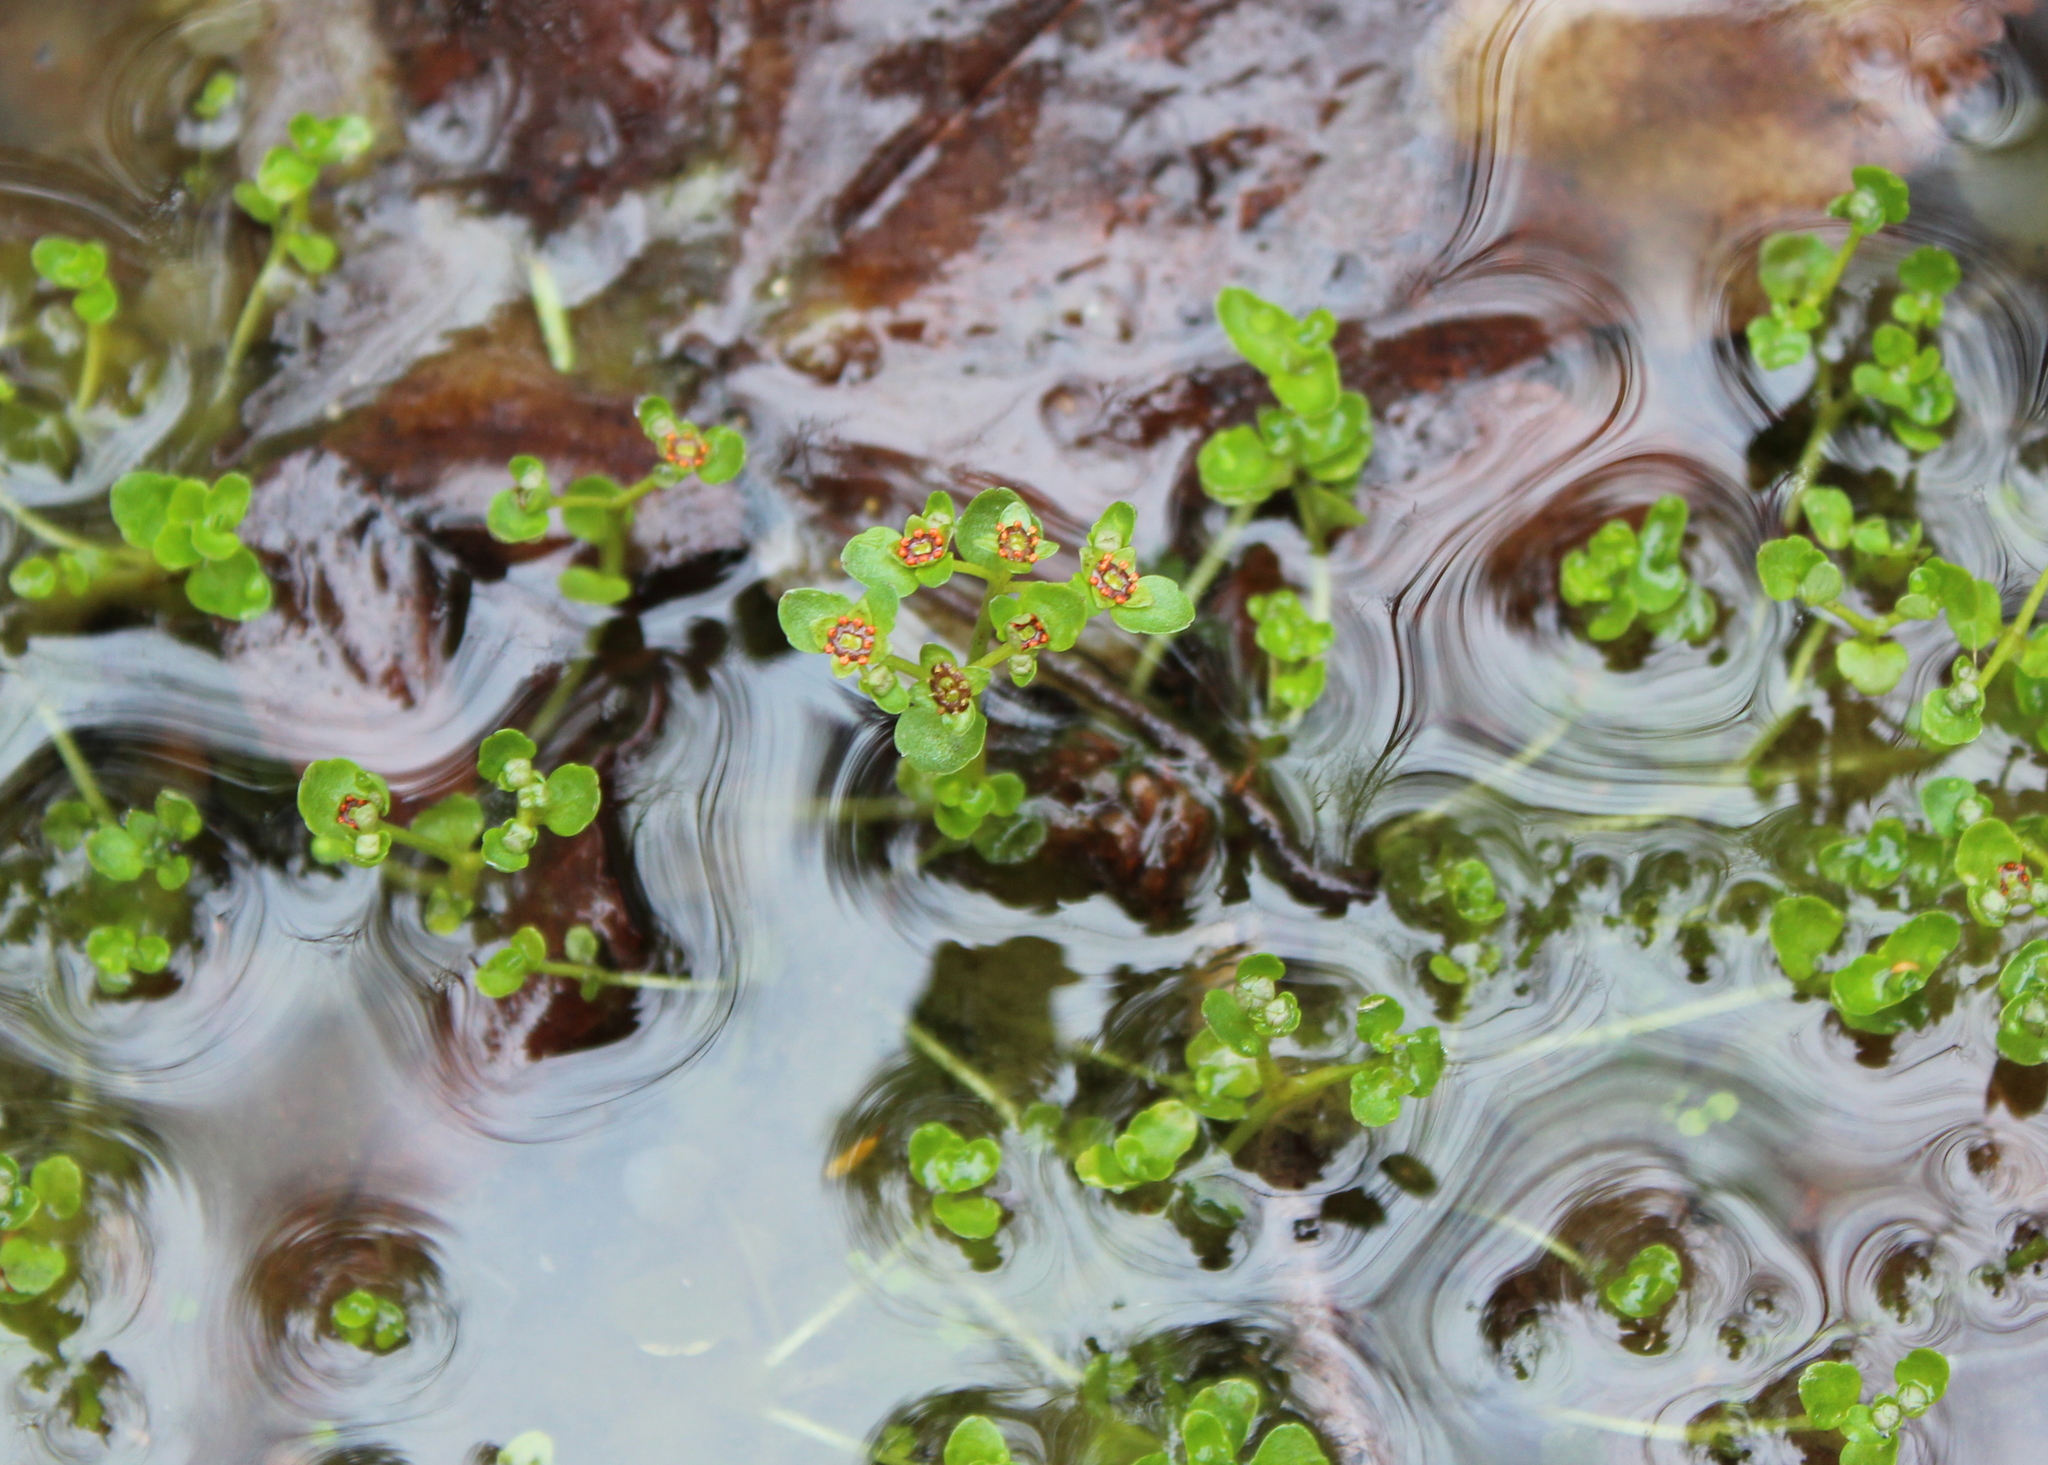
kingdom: Plantae
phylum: Tracheophyta
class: Magnoliopsida
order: Saxifragales
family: Saxifragaceae
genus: Chrysosplenium
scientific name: Chrysosplenium americanum
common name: American golden-saxifrage
